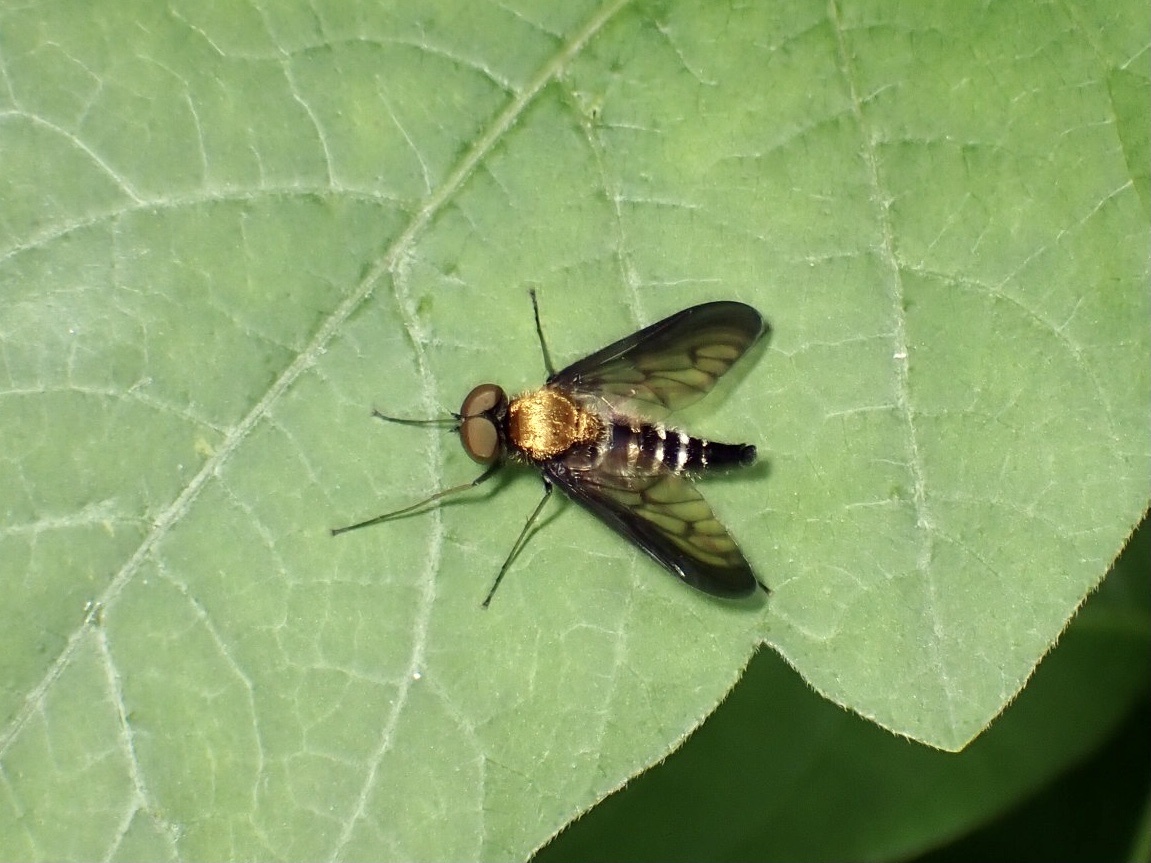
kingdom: Animalia
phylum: Arthropoda
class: Insecta
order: Diptera
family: Rhagionidae
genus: Chrysopilus
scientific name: Chrysopilus thoracicus
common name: Golden-backed snipe fly
